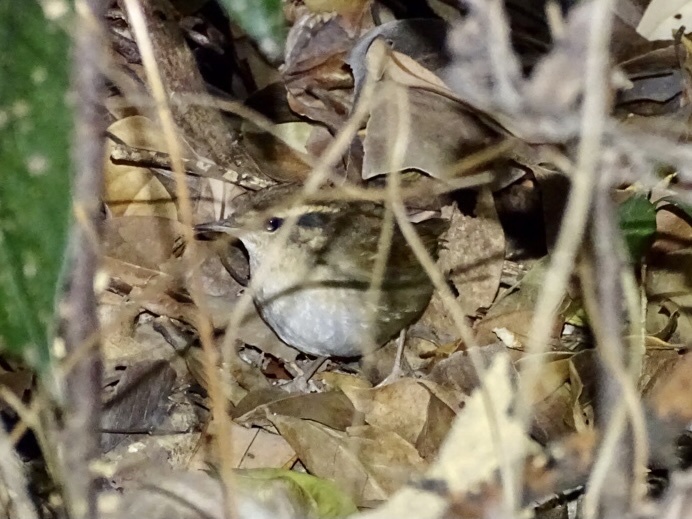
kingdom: Animalia
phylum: Chordata
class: Aves
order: Passeriformes
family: Cettiidae
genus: Urosphena
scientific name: Urosphena squameiceps
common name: Asian stubtail
